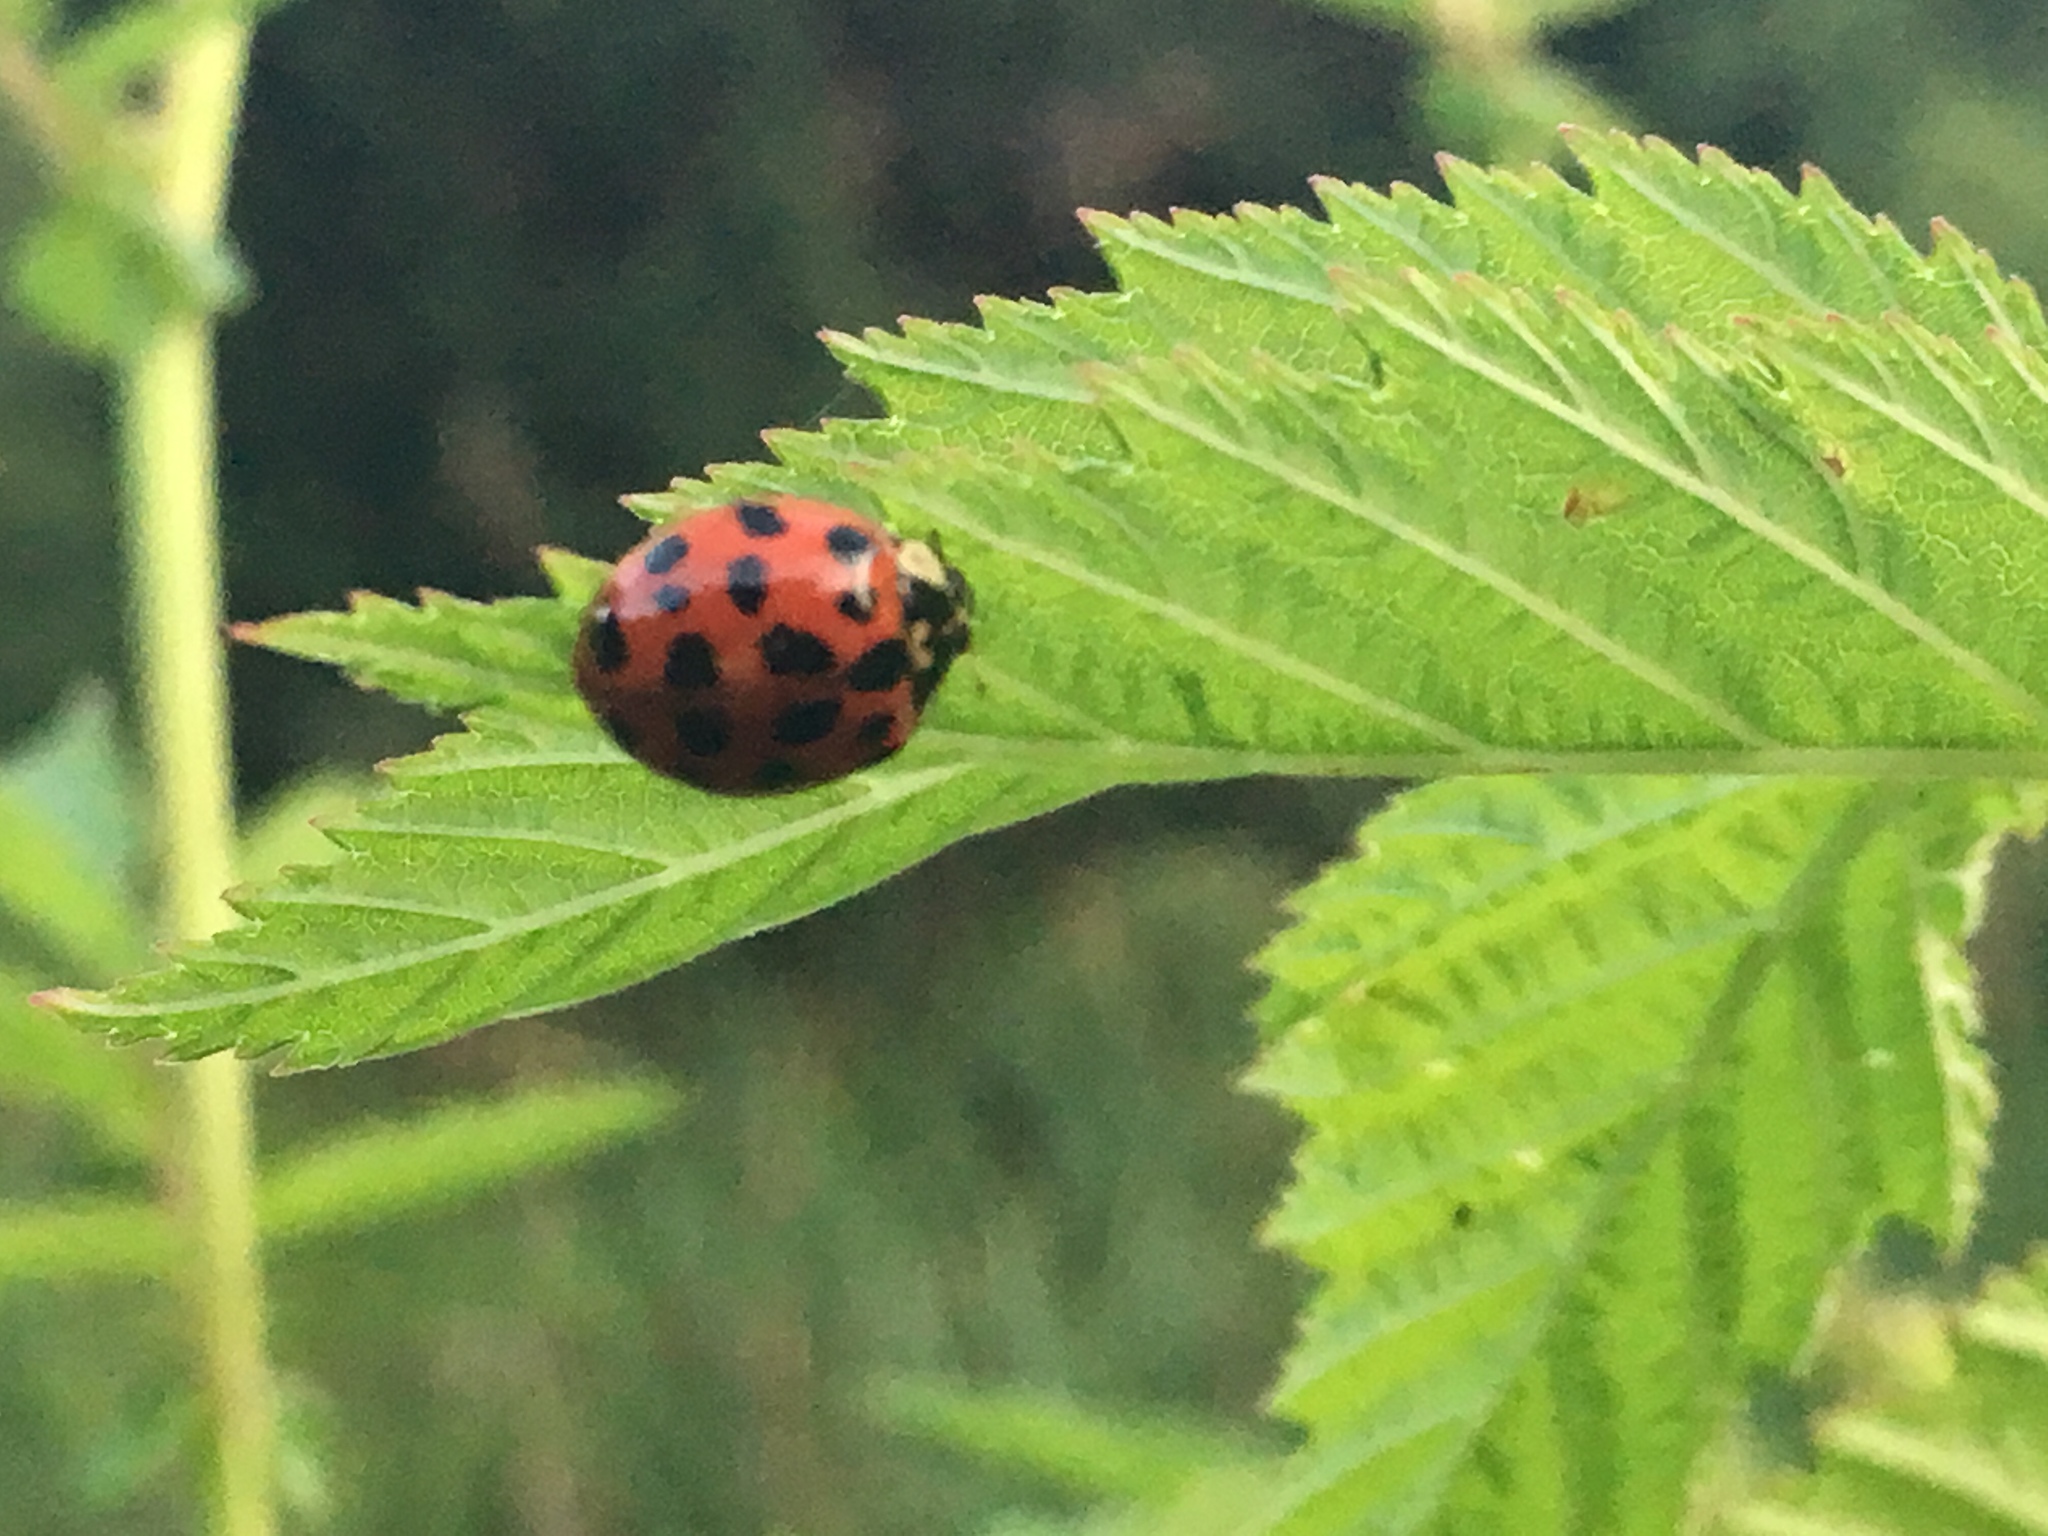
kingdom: Animalia
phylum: Arthropoda
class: Insecta
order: Coleoptera
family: Coccinellidae
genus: Harmonia
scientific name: Harmonia axyridis
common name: Harlequin ladybird
